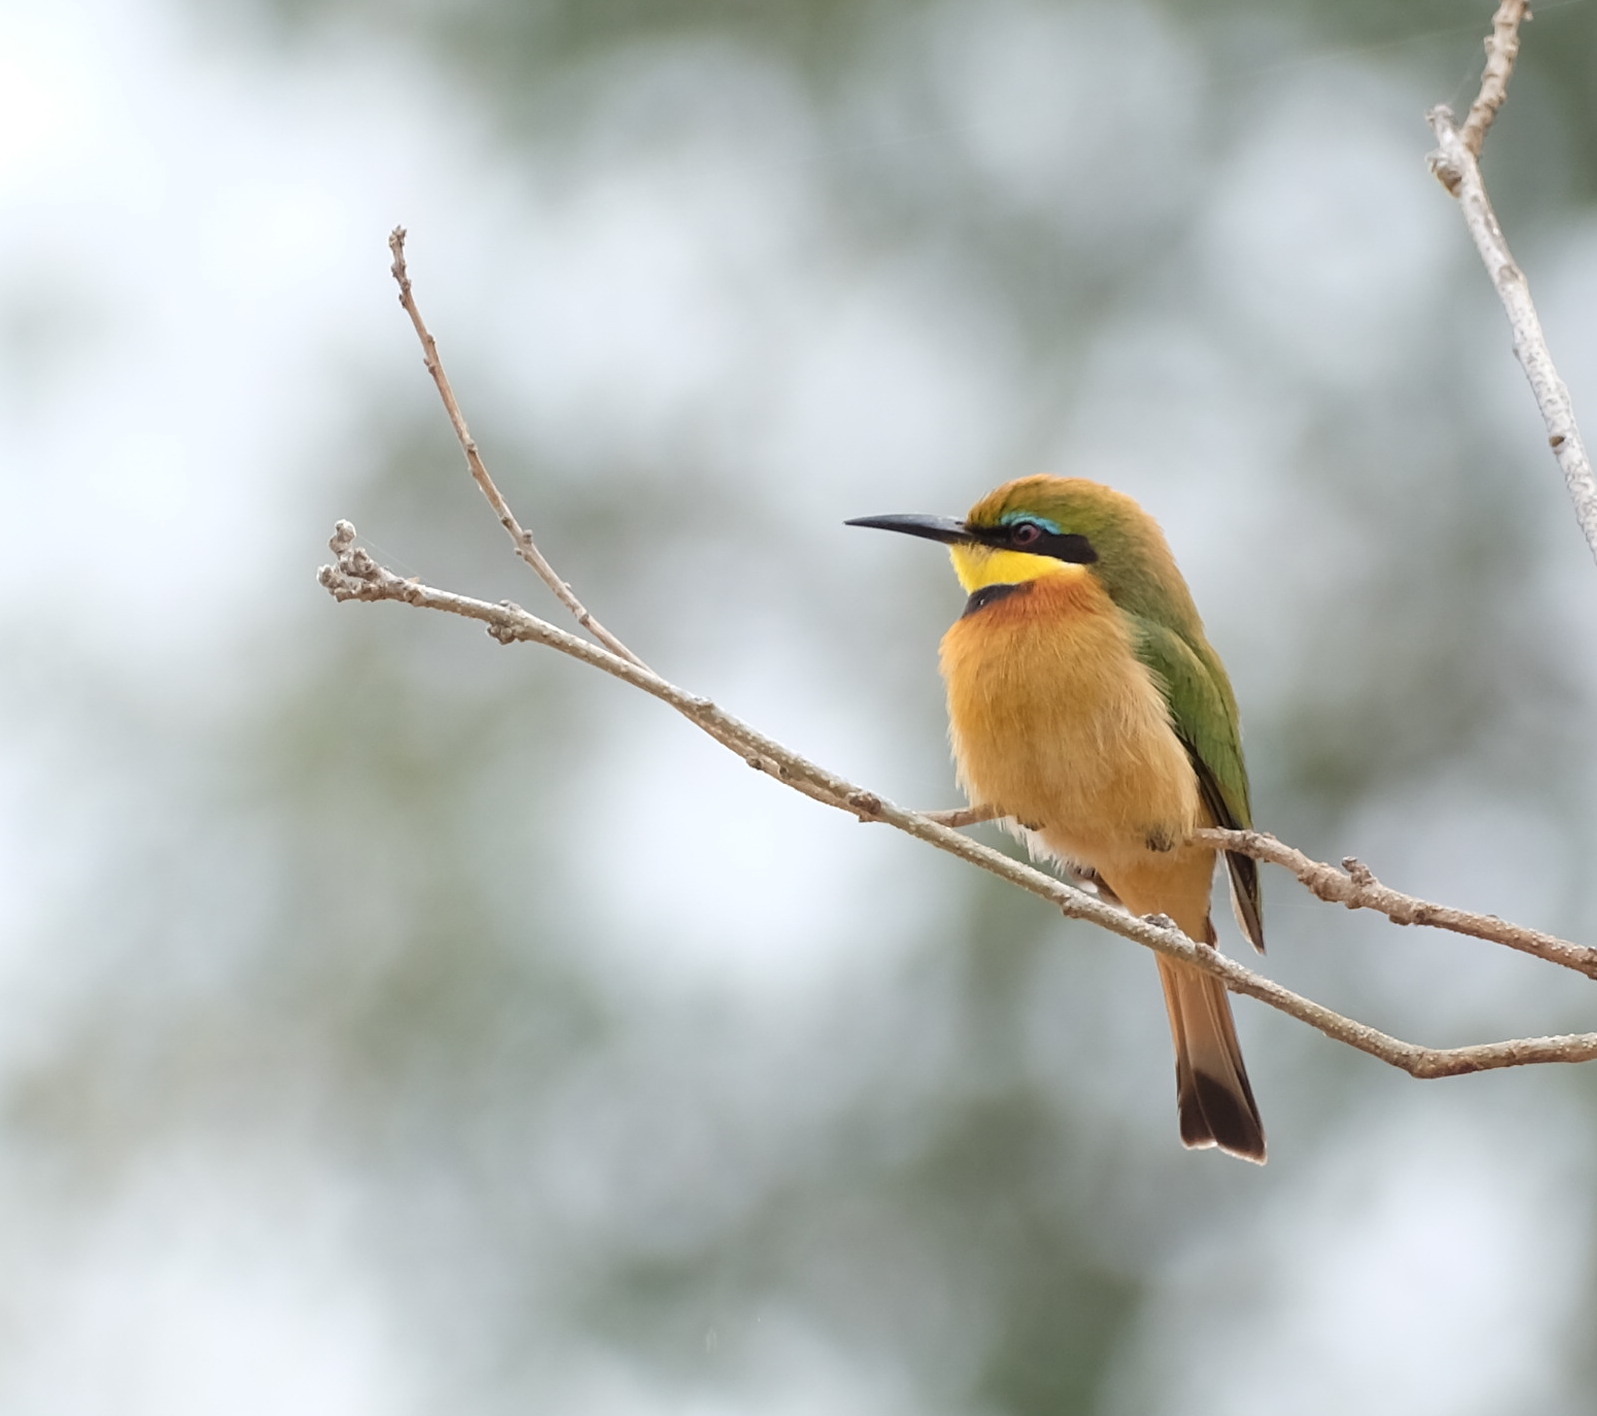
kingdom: Animalia
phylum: Chordata
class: Aves
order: Coraciiformes
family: Meropidae
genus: Merops
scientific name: Merops pusillus
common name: Little bee-eater
